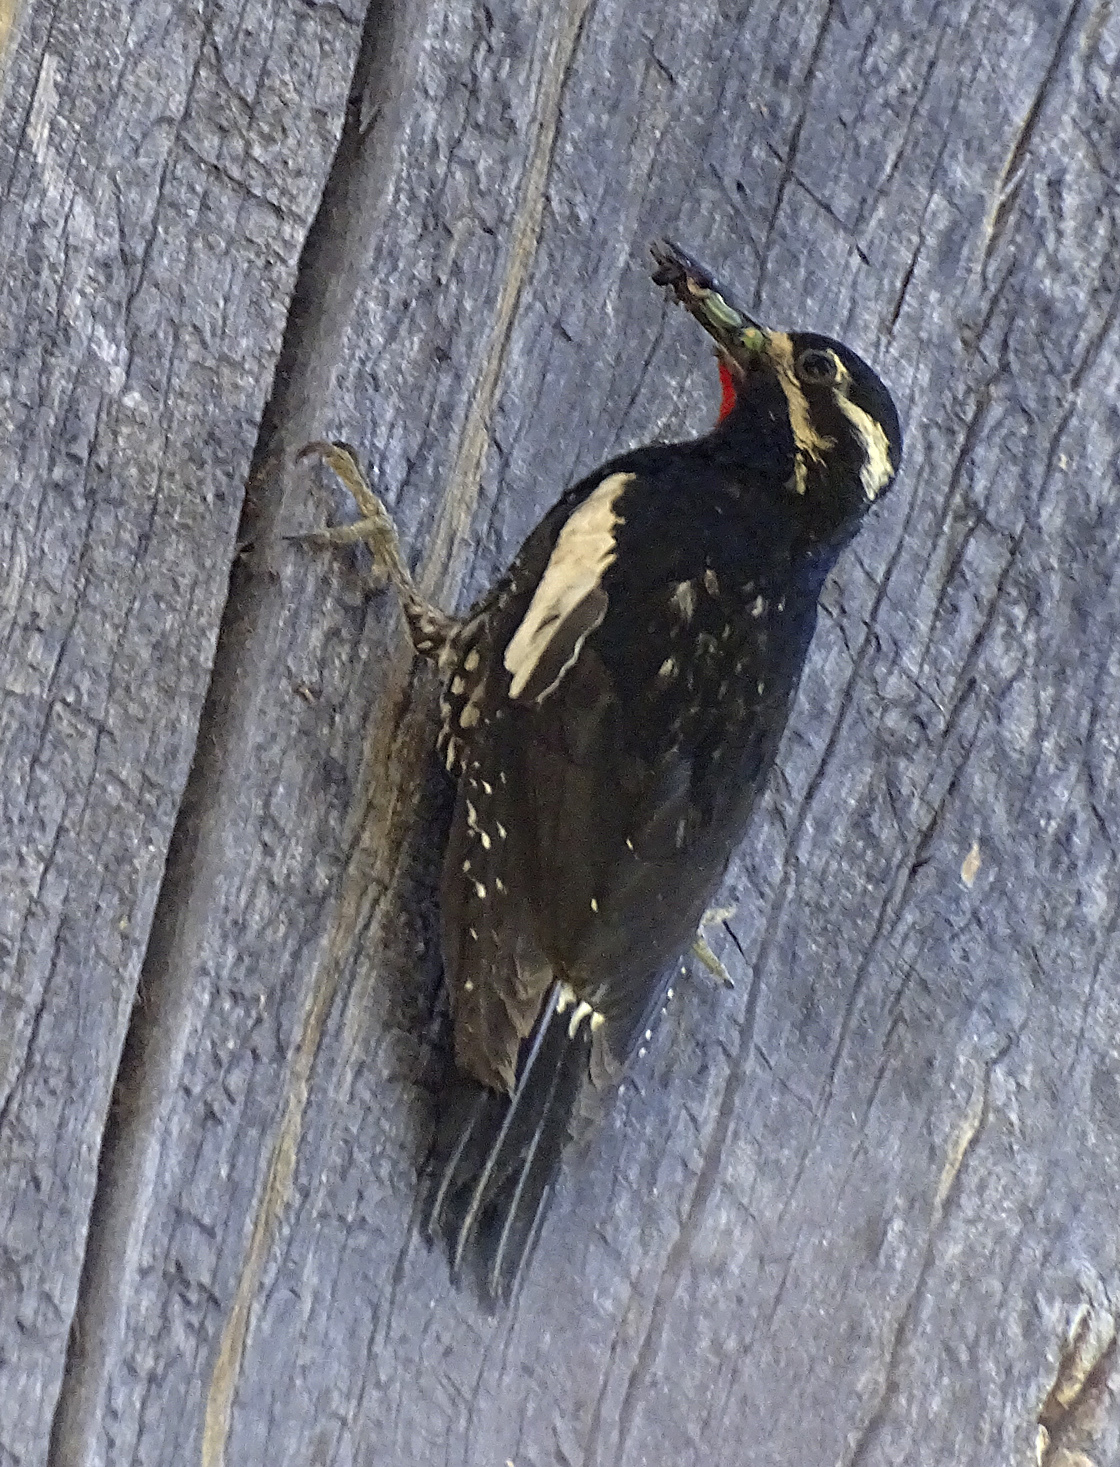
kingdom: Animalia
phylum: Chordata
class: Aves
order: Piciformes
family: Picidae
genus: Sphyrapicus
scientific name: Sphyrapicus thyroideus
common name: Williamson's sapsucker
